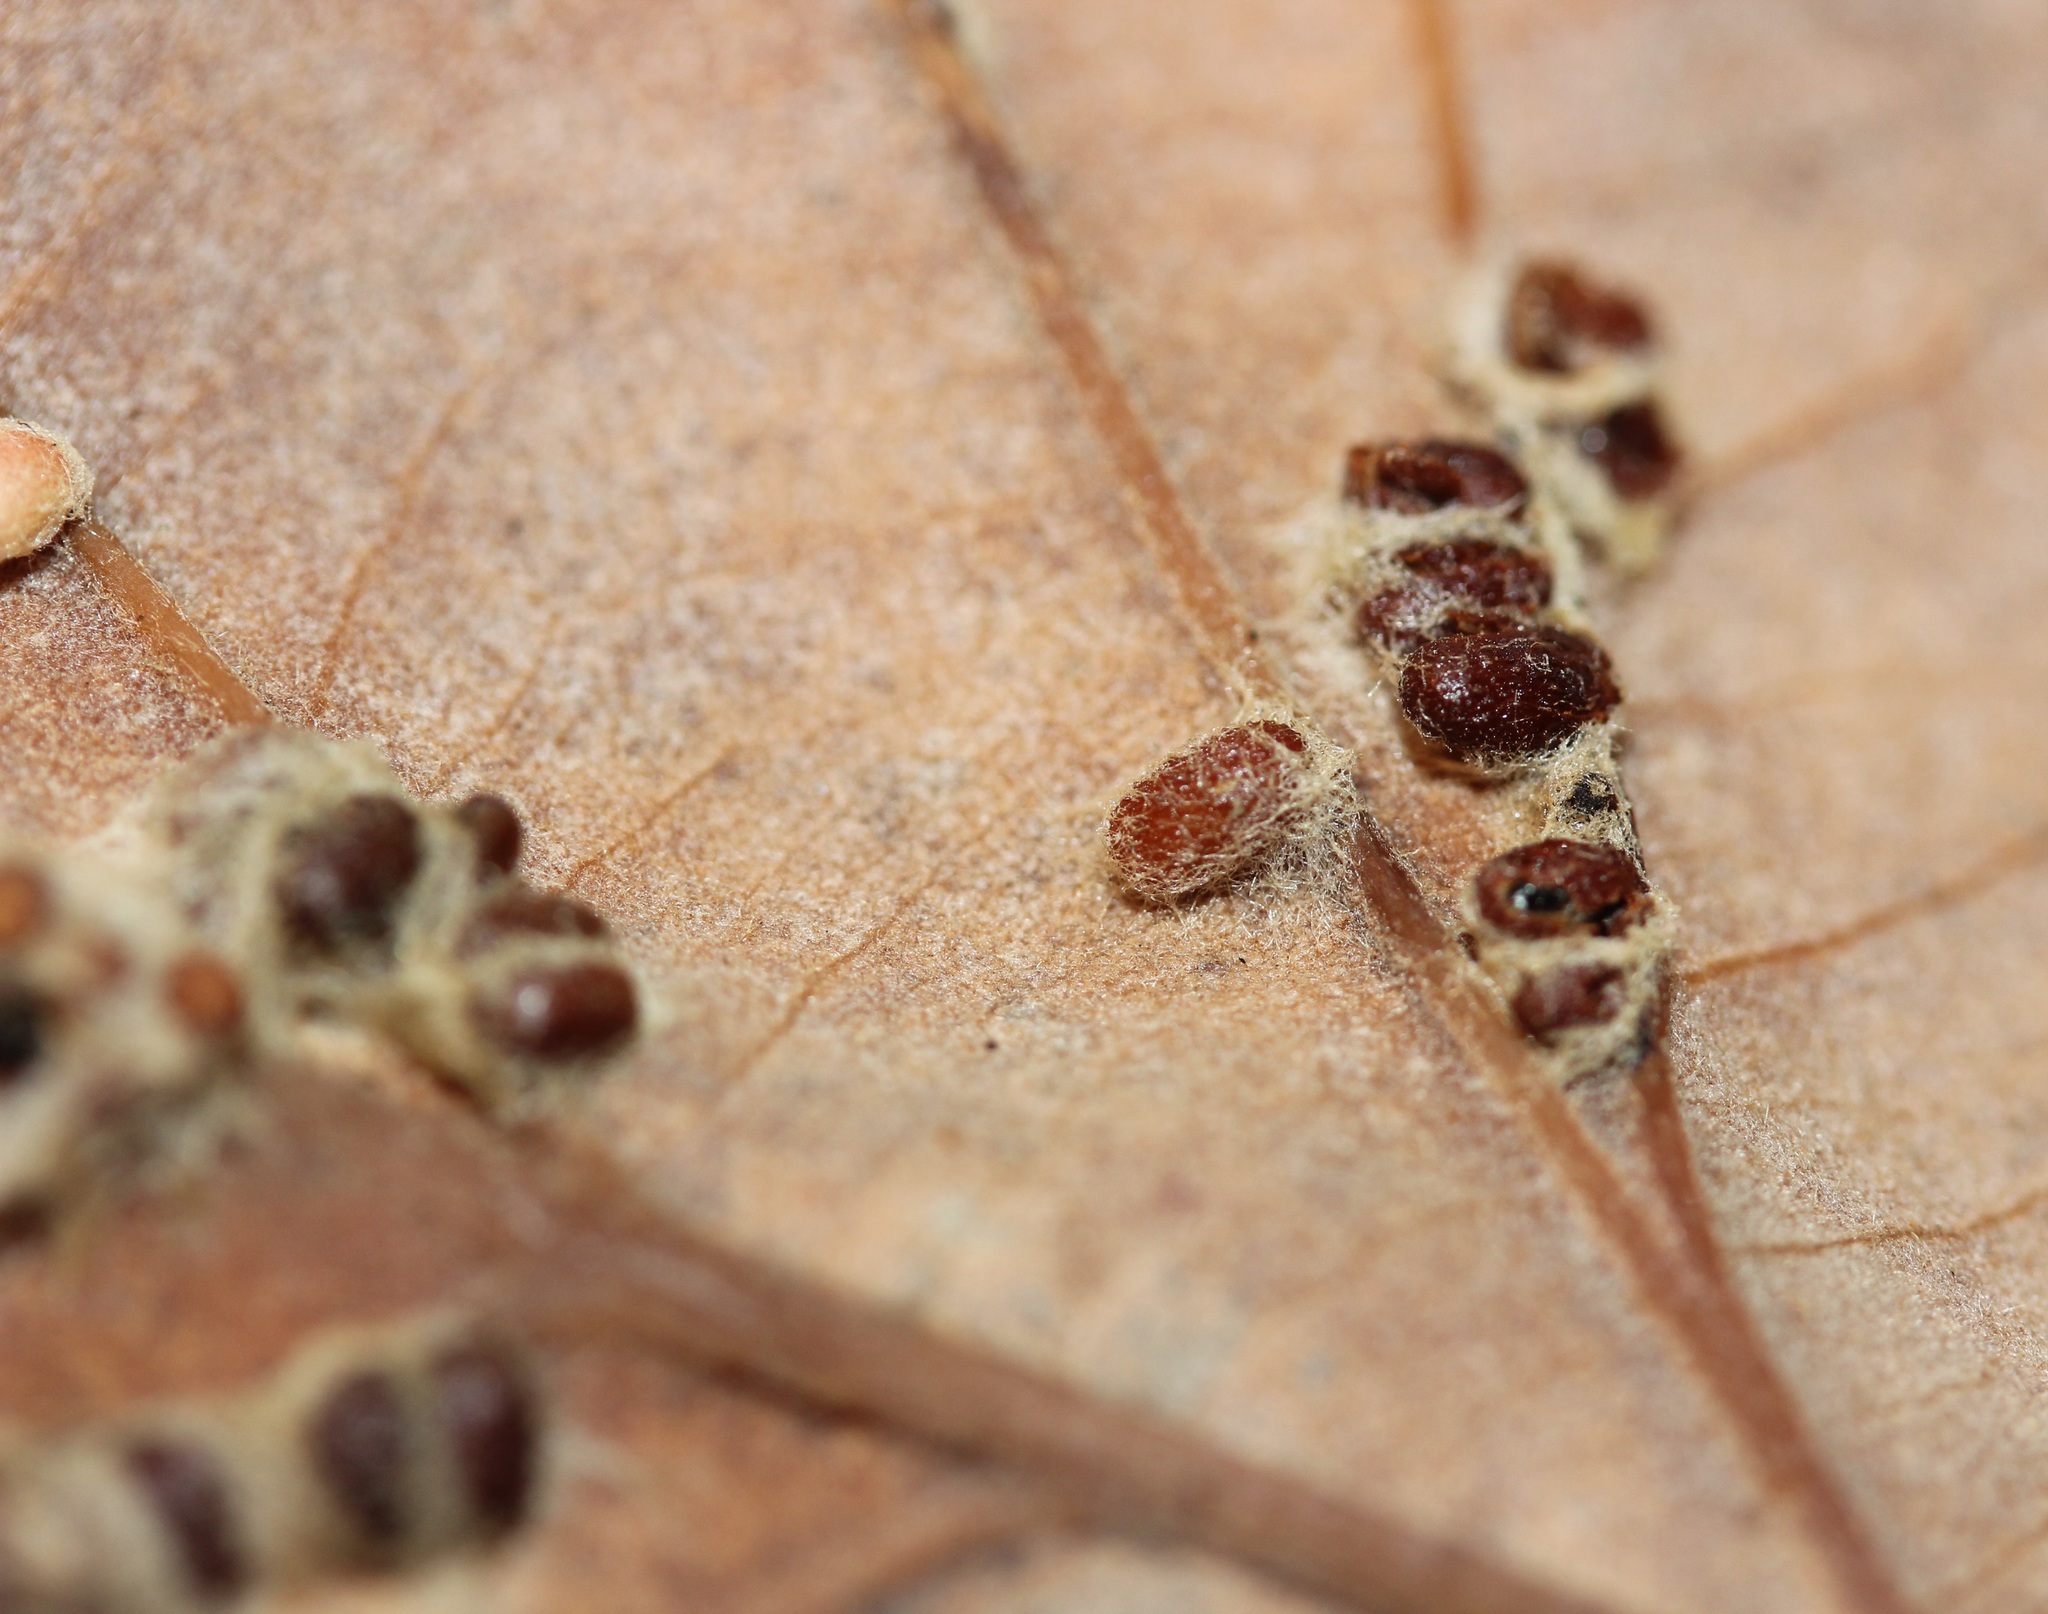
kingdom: Animalia
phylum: Arthropoda
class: Insecta
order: Hymenoptera
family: Cynipidae
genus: Andricus
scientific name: Andricus Druon ignotum
